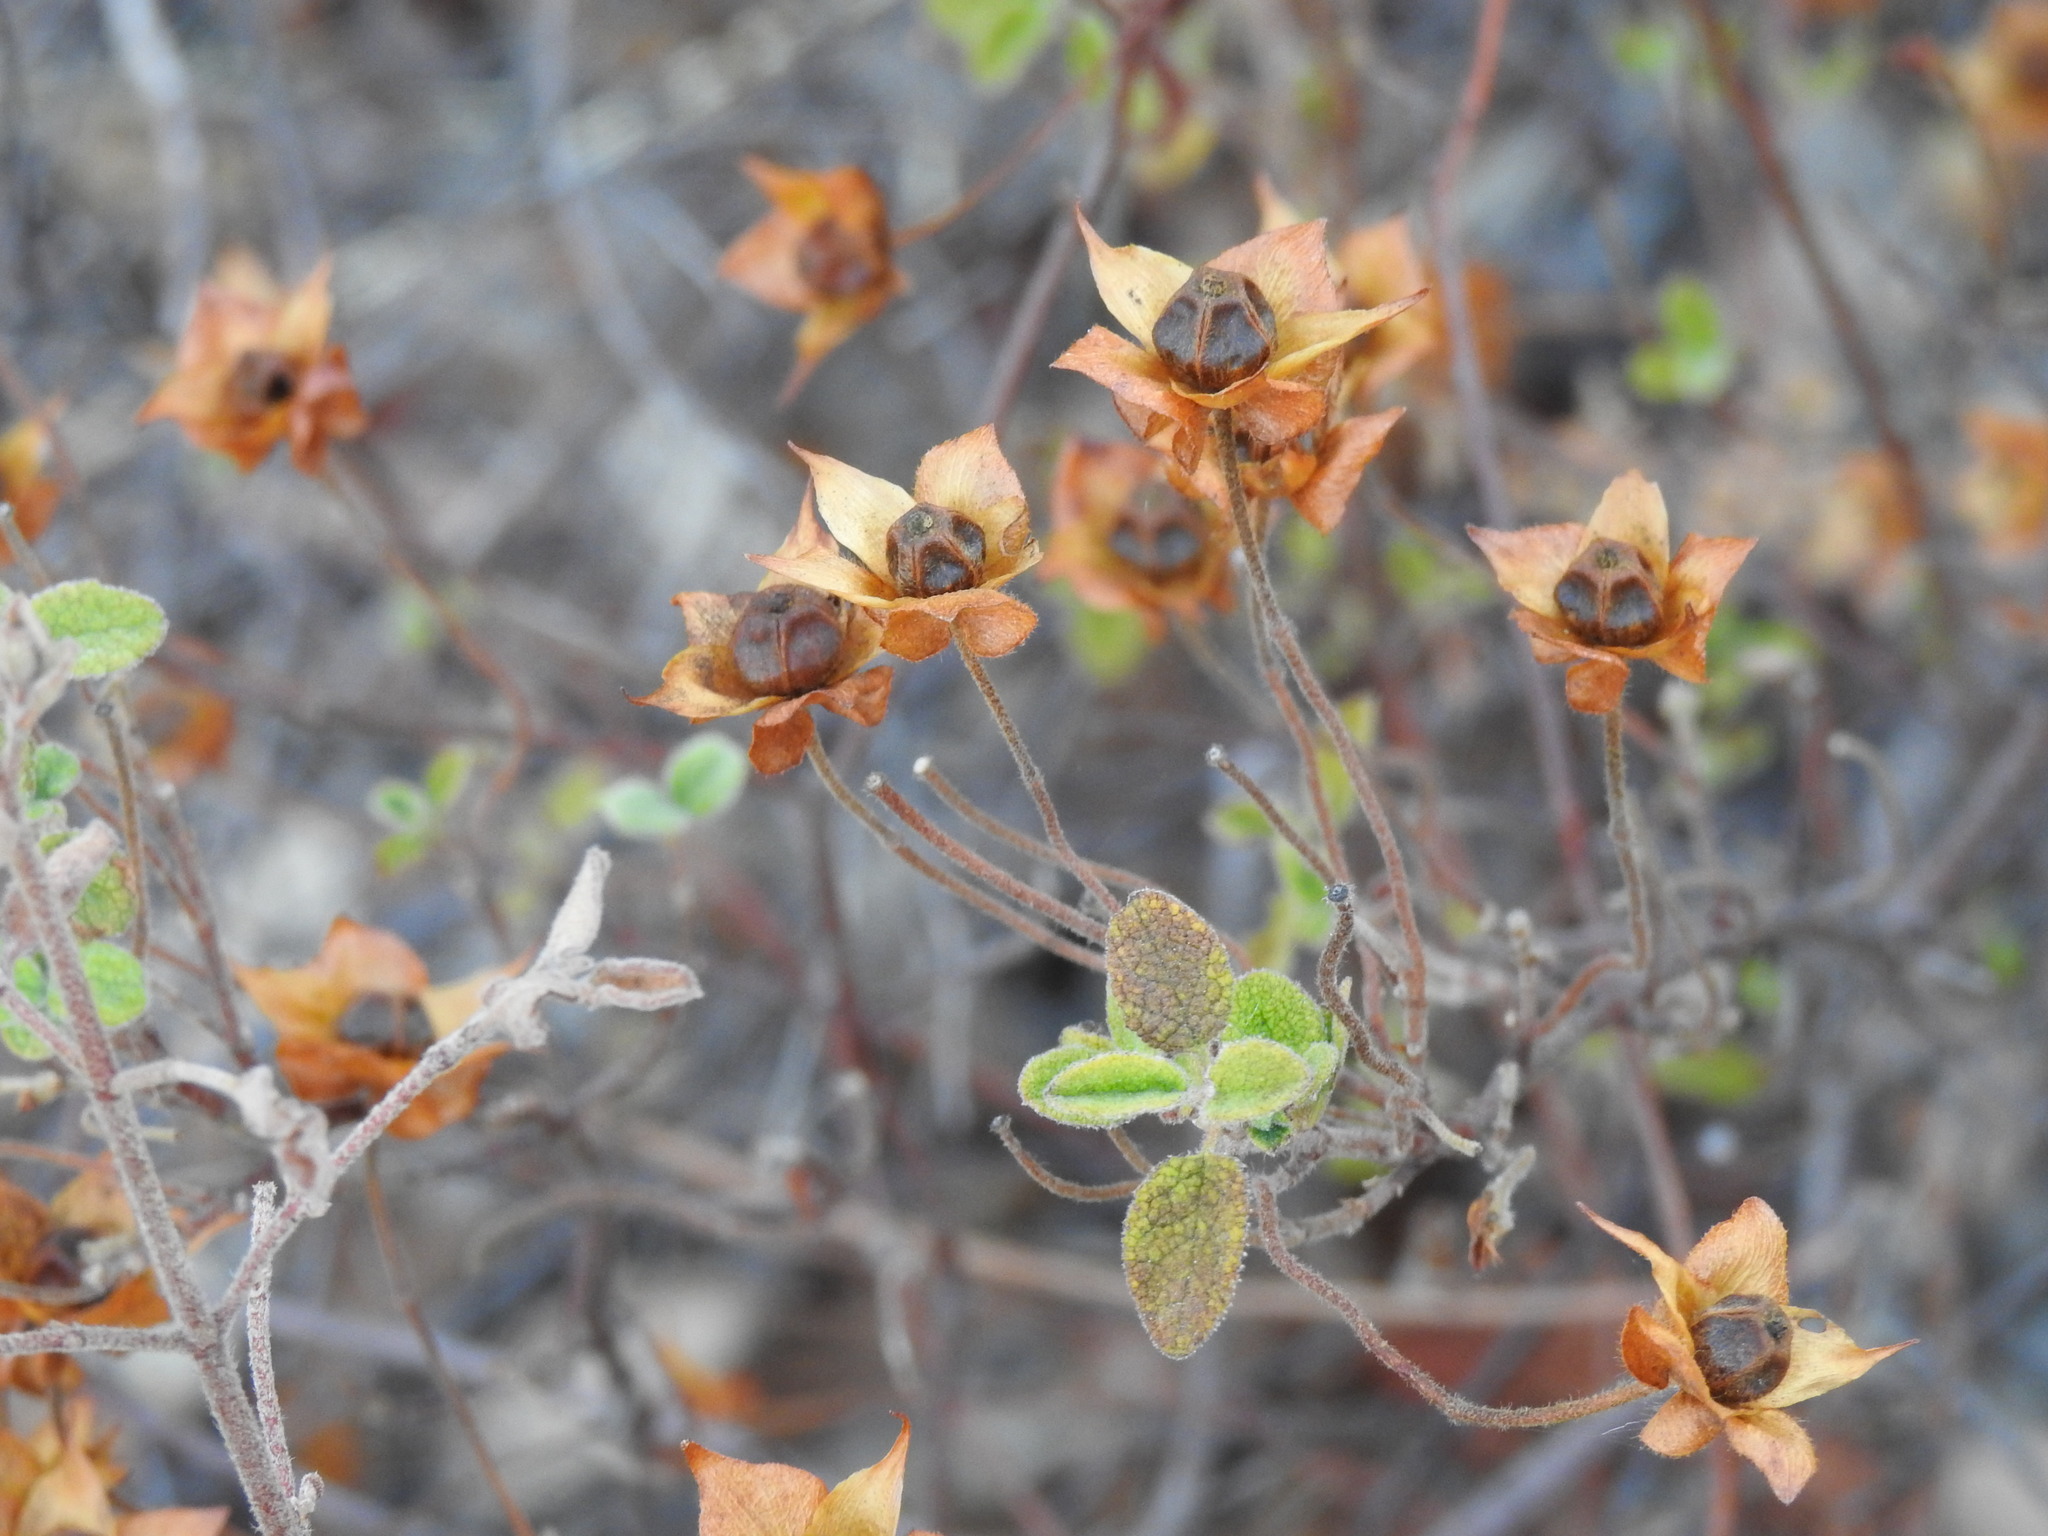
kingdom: Plantae
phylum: Tracheophyta
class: Magnoliopsida
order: Malvales
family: Cistaceae
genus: Cistus
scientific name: Cistus salviifolius
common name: Salvia cistus
